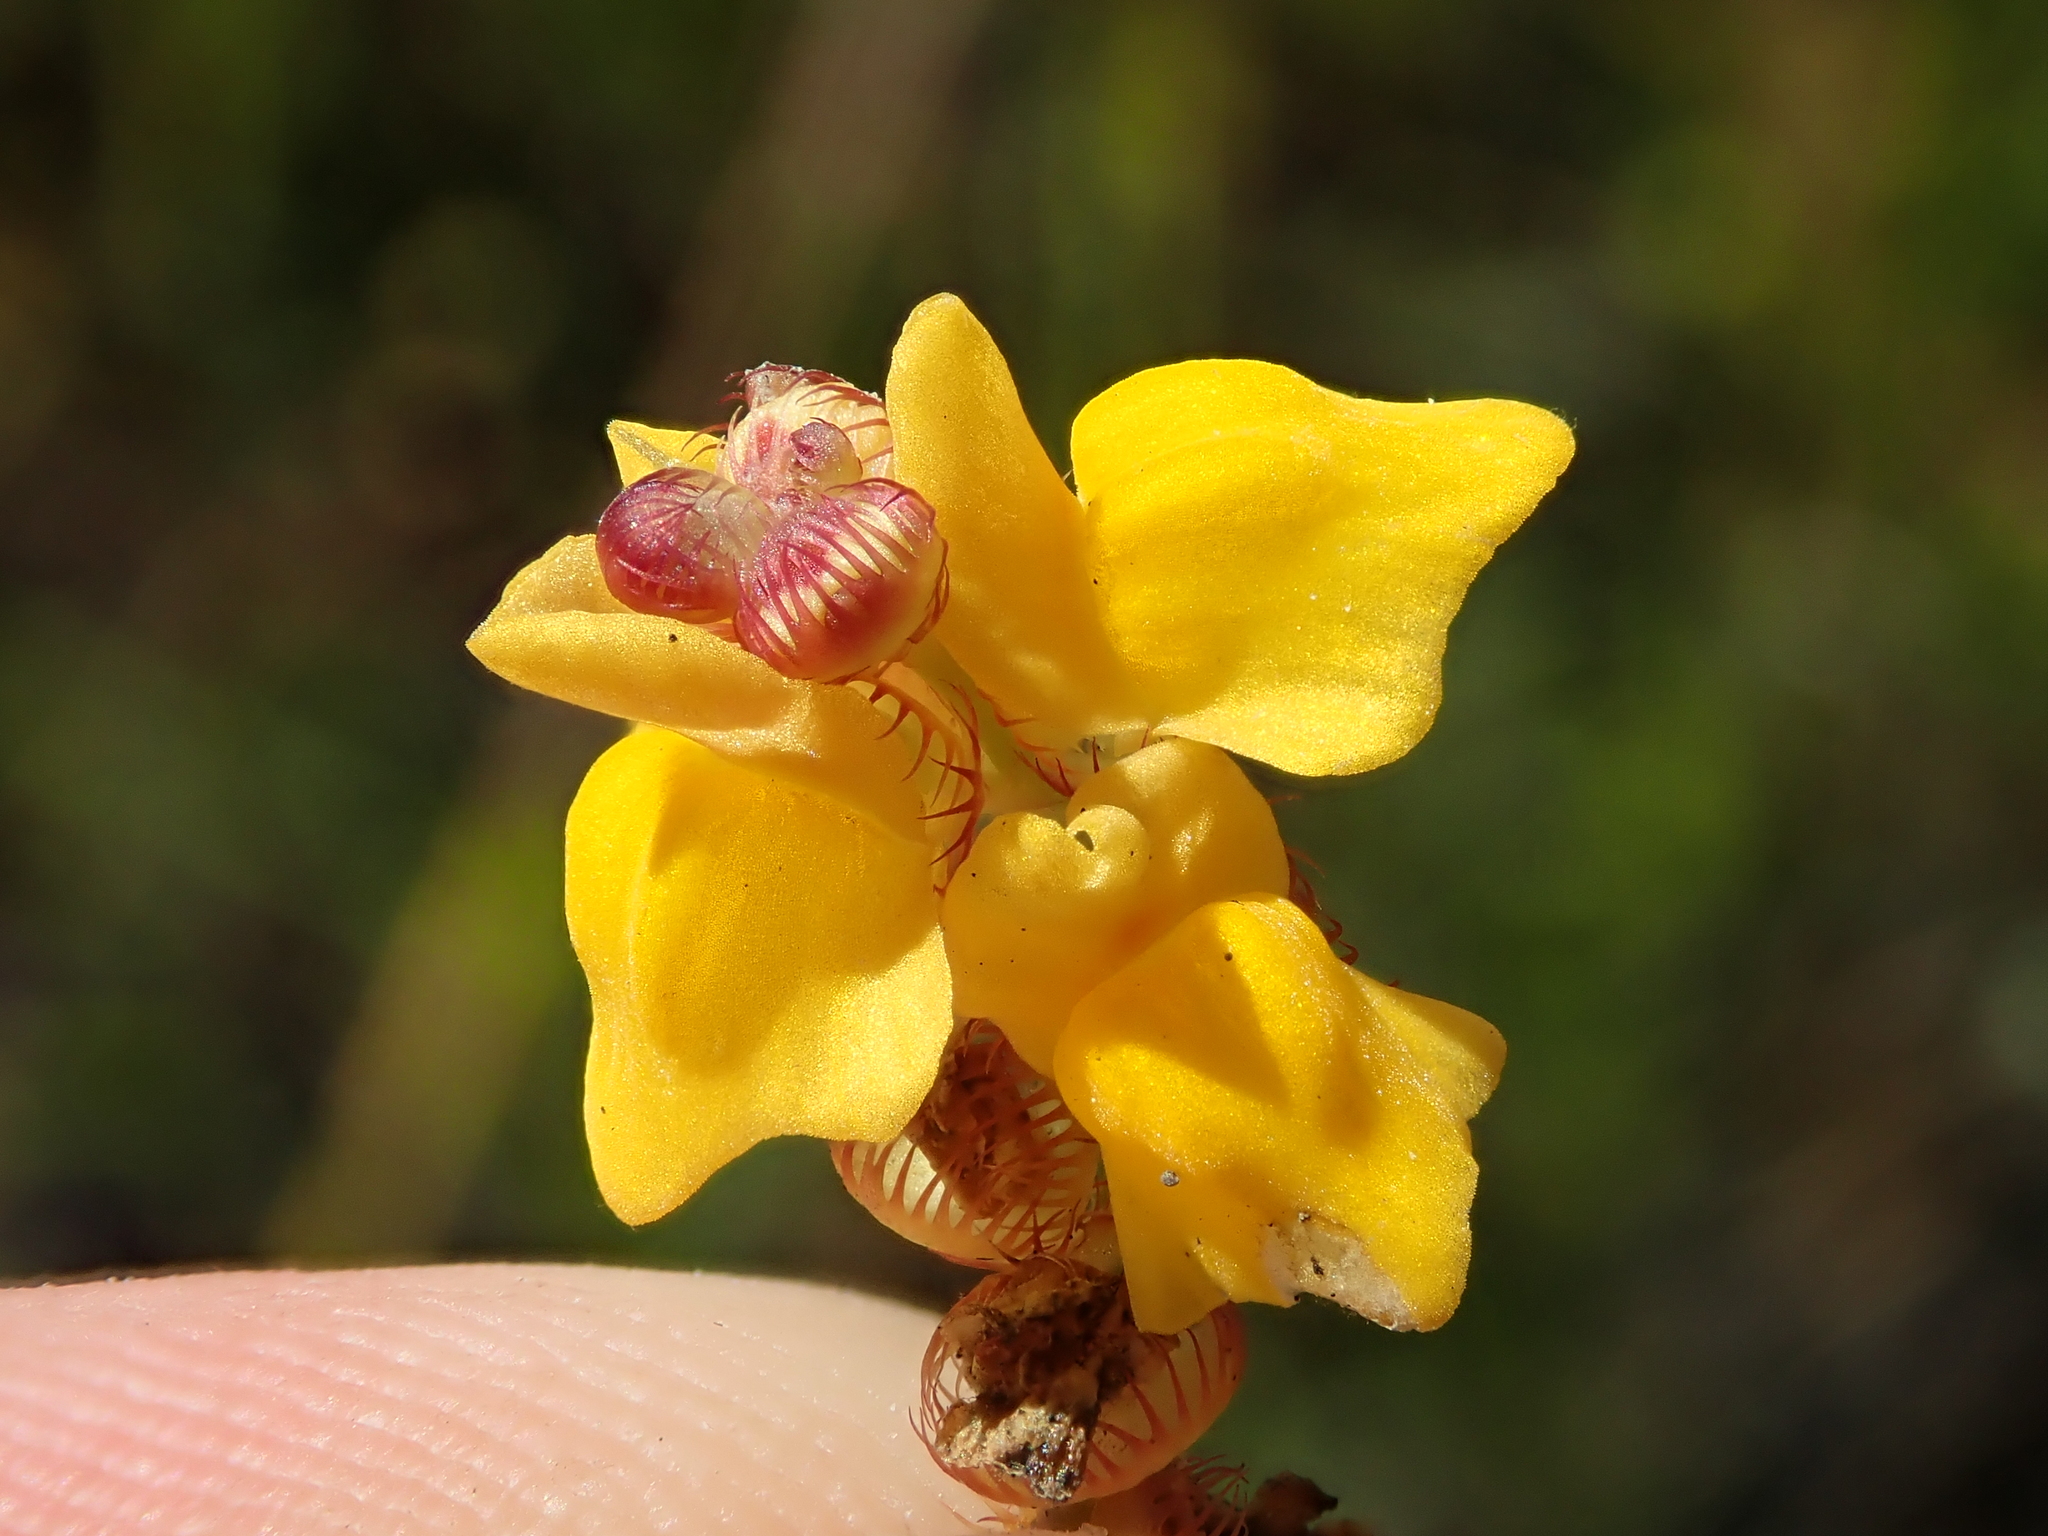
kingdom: Plantae
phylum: Tracheophyta
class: Magnoliopsida
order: Lamiales
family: Lentibulariaceae
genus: Utricularia
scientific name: Utricularia simulans
